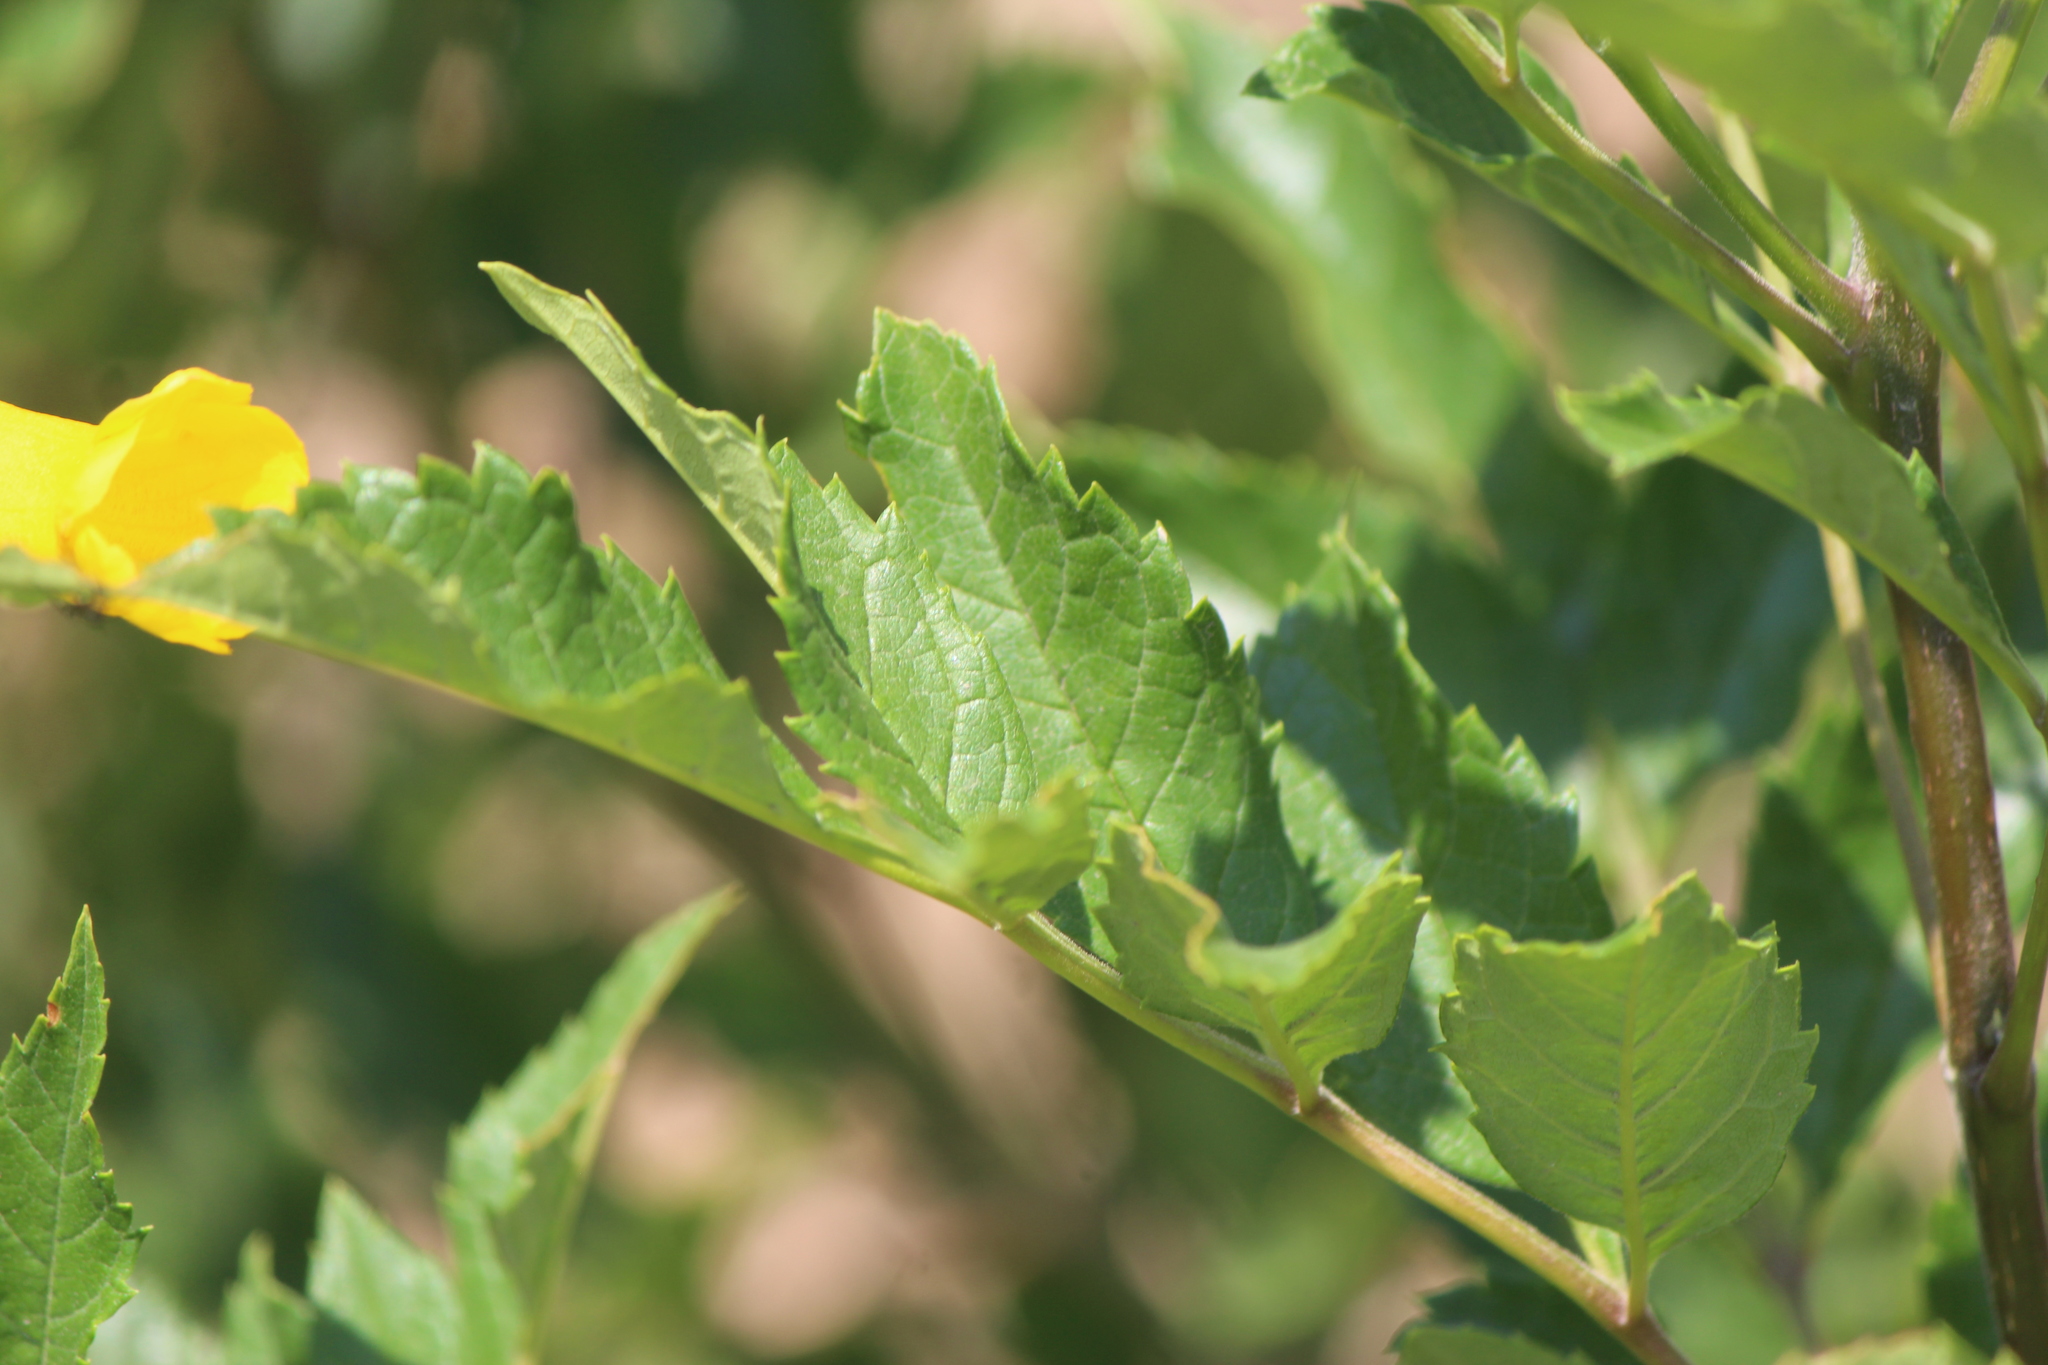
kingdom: Plantae
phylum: Tracheophyta
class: Magnoliopsida
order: Lamiales
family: Bignoniaceae
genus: Tecoma
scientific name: Tecoma stans
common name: Yellow trumpetbush
